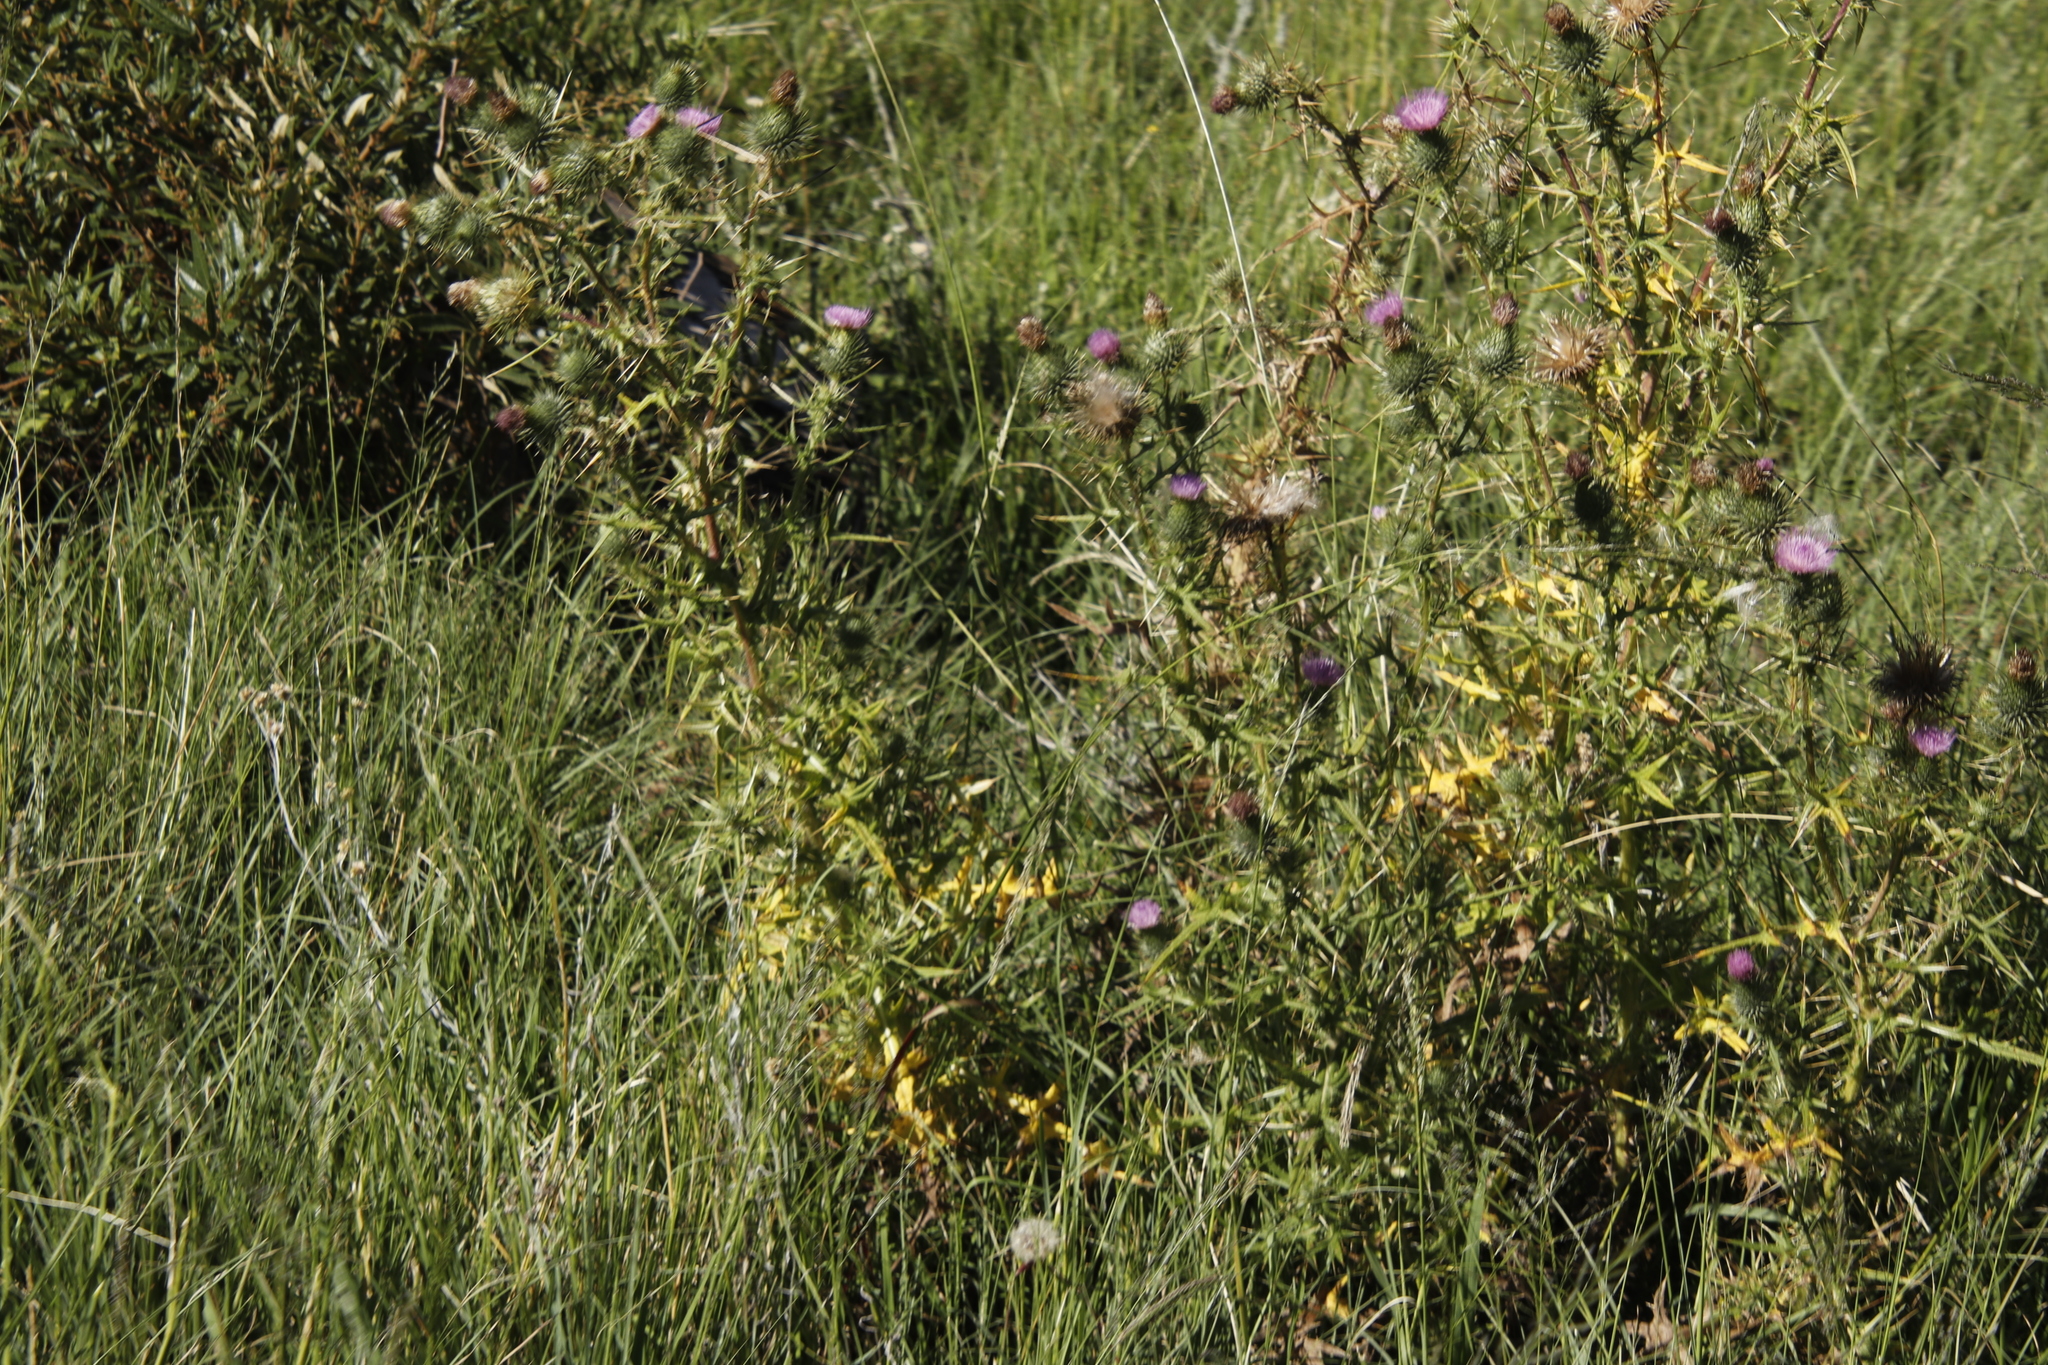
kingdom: Plantae
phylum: Tracheophyta
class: Magnoliopsida
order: Asterales
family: Asteraceae
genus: Cirsium
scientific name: Cirsium vulgare
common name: Bull thistle
